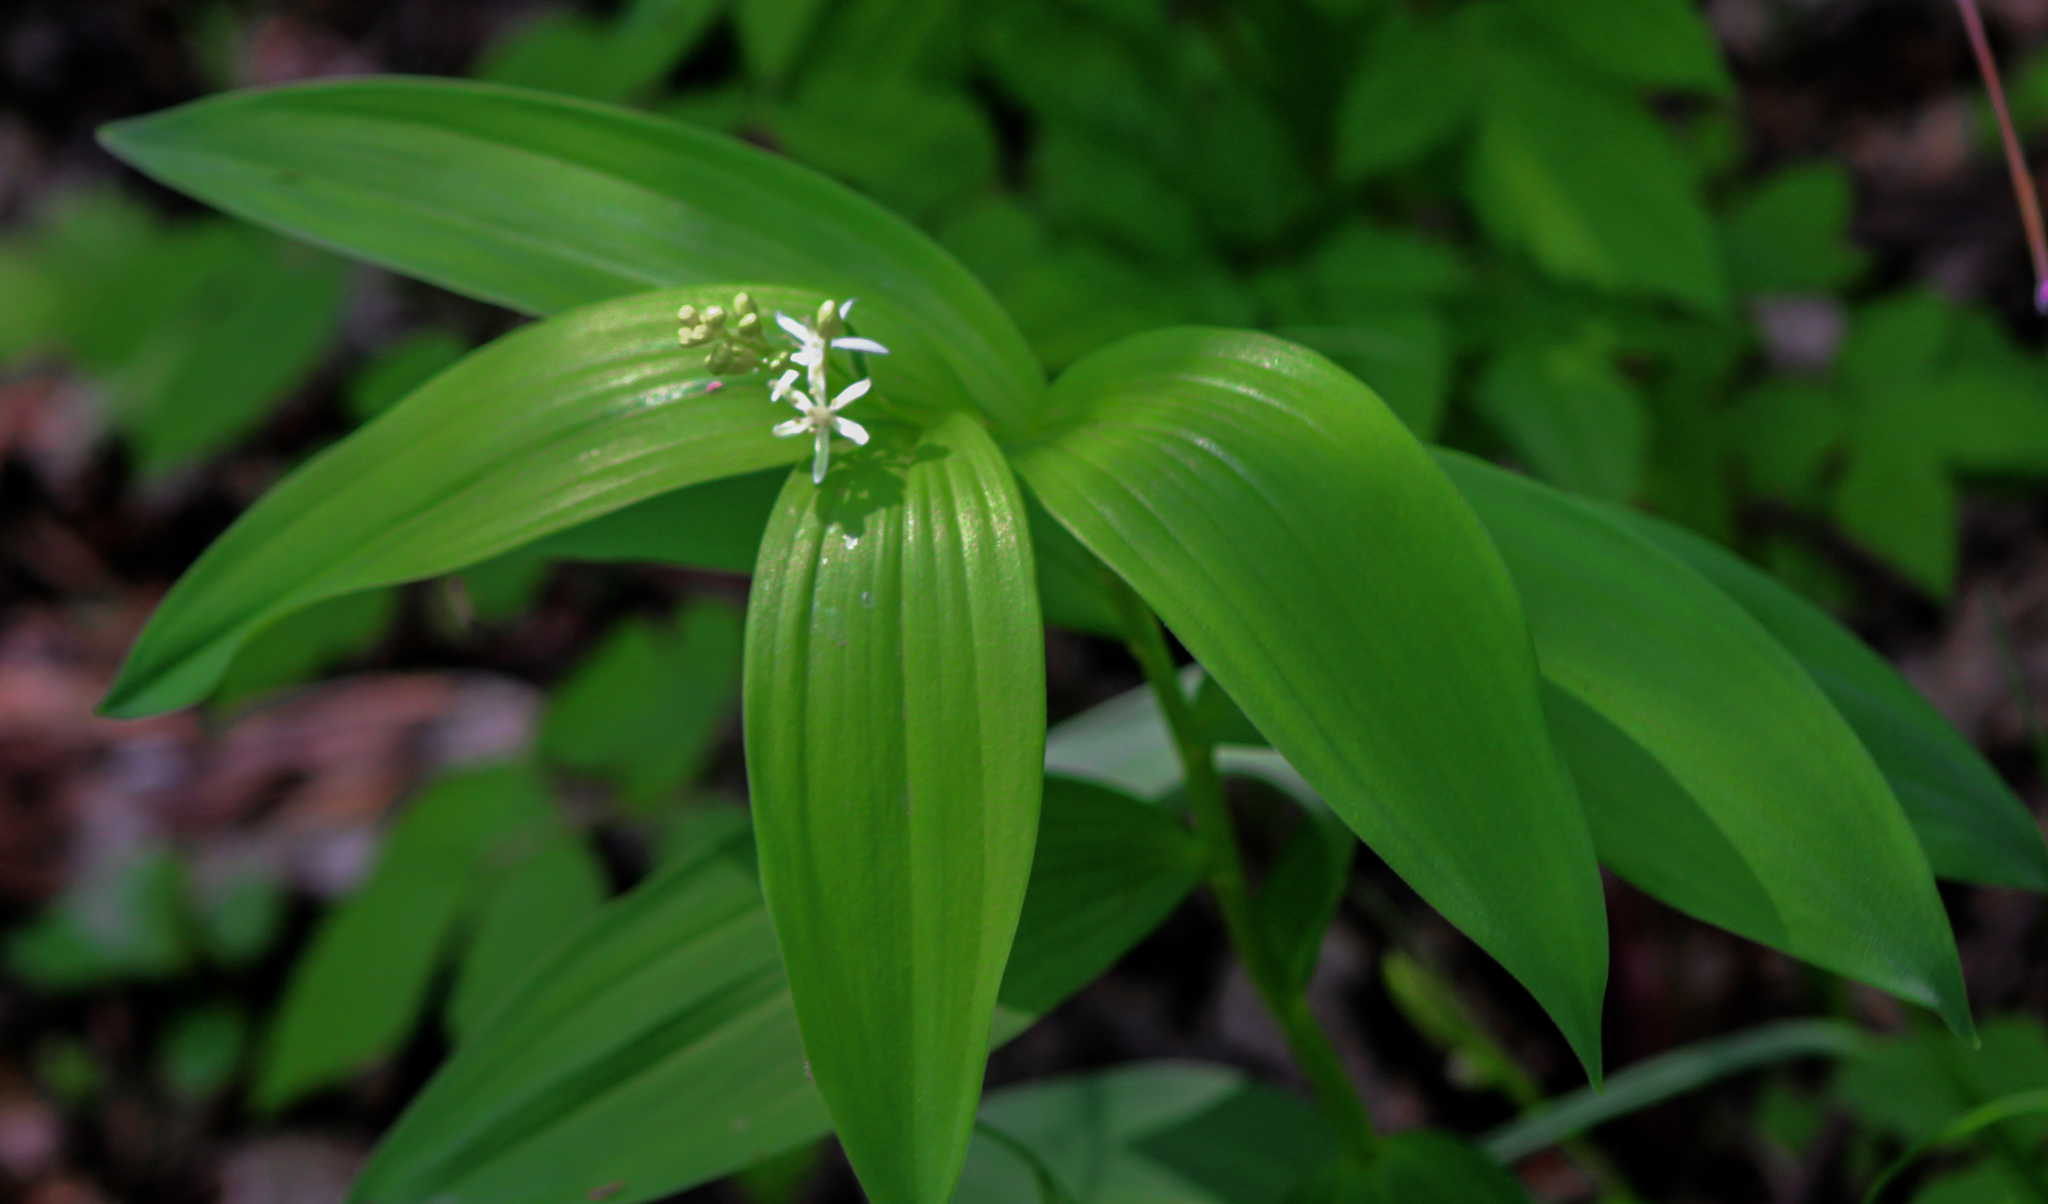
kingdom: Plantae
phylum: Tracheophyta
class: Liliopsida
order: Asparagales
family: Asparagaceae
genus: Maianthemum
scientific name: Maianthemum stellatum
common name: Little false solomon's seal
